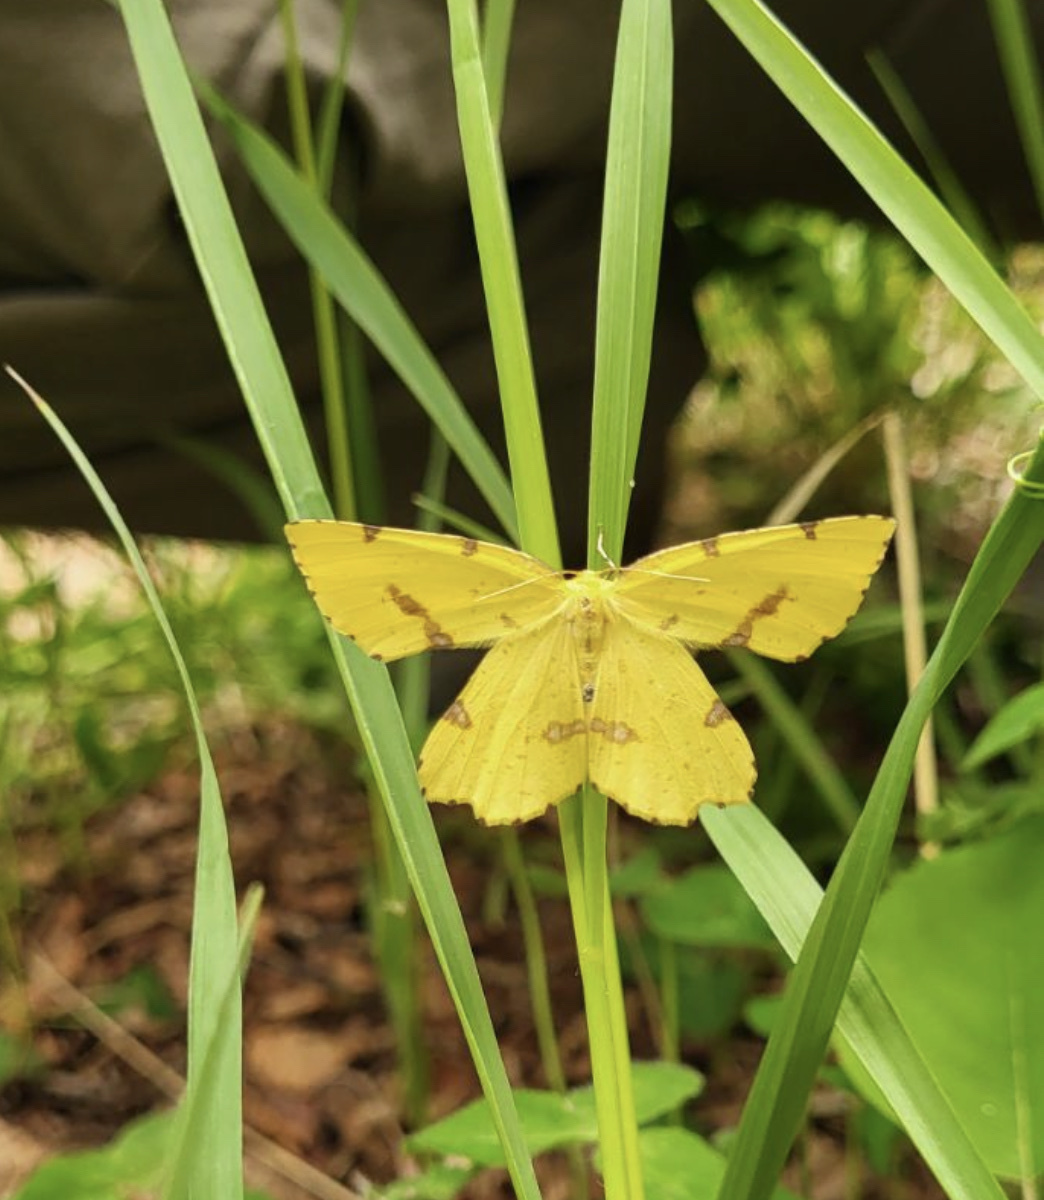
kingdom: Animalia
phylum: Arthropoda
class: Insecta
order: Lepidoptera
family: Geometridae
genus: Xanthotype
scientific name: Xanthotype
